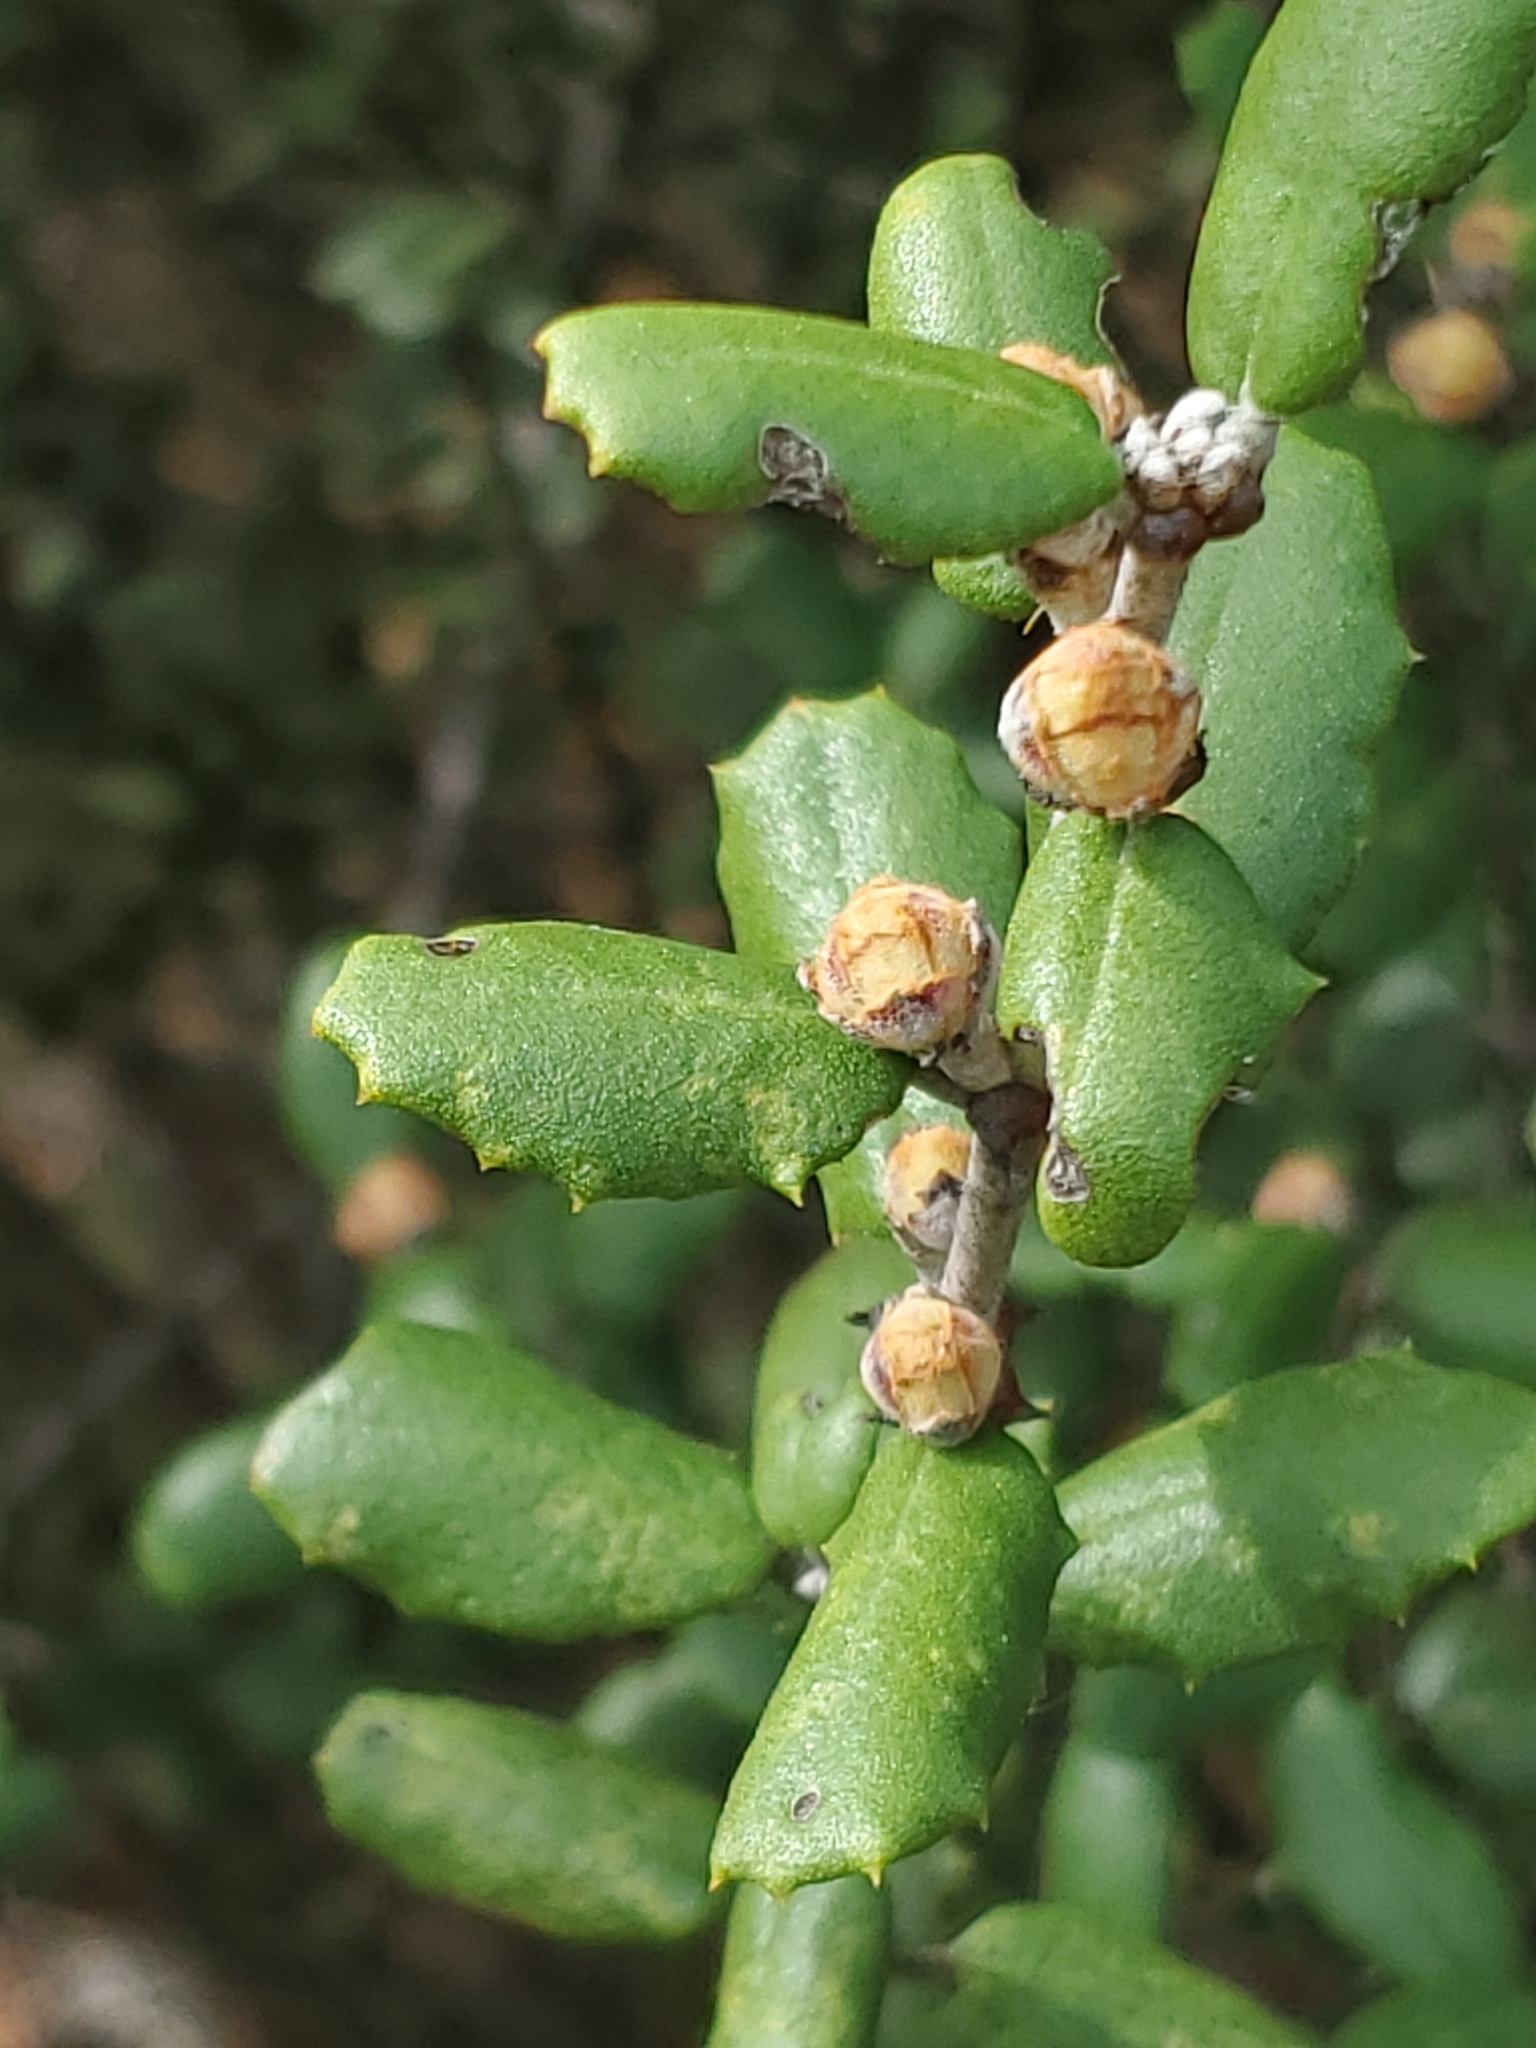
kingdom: Plantae
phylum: Tracheophyta
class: Magnoliopsida
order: Rosales
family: Rhamnaceae
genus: Ceanothus
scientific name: Ceanothus crassifolius
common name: Hoaryleaf ceanothus
